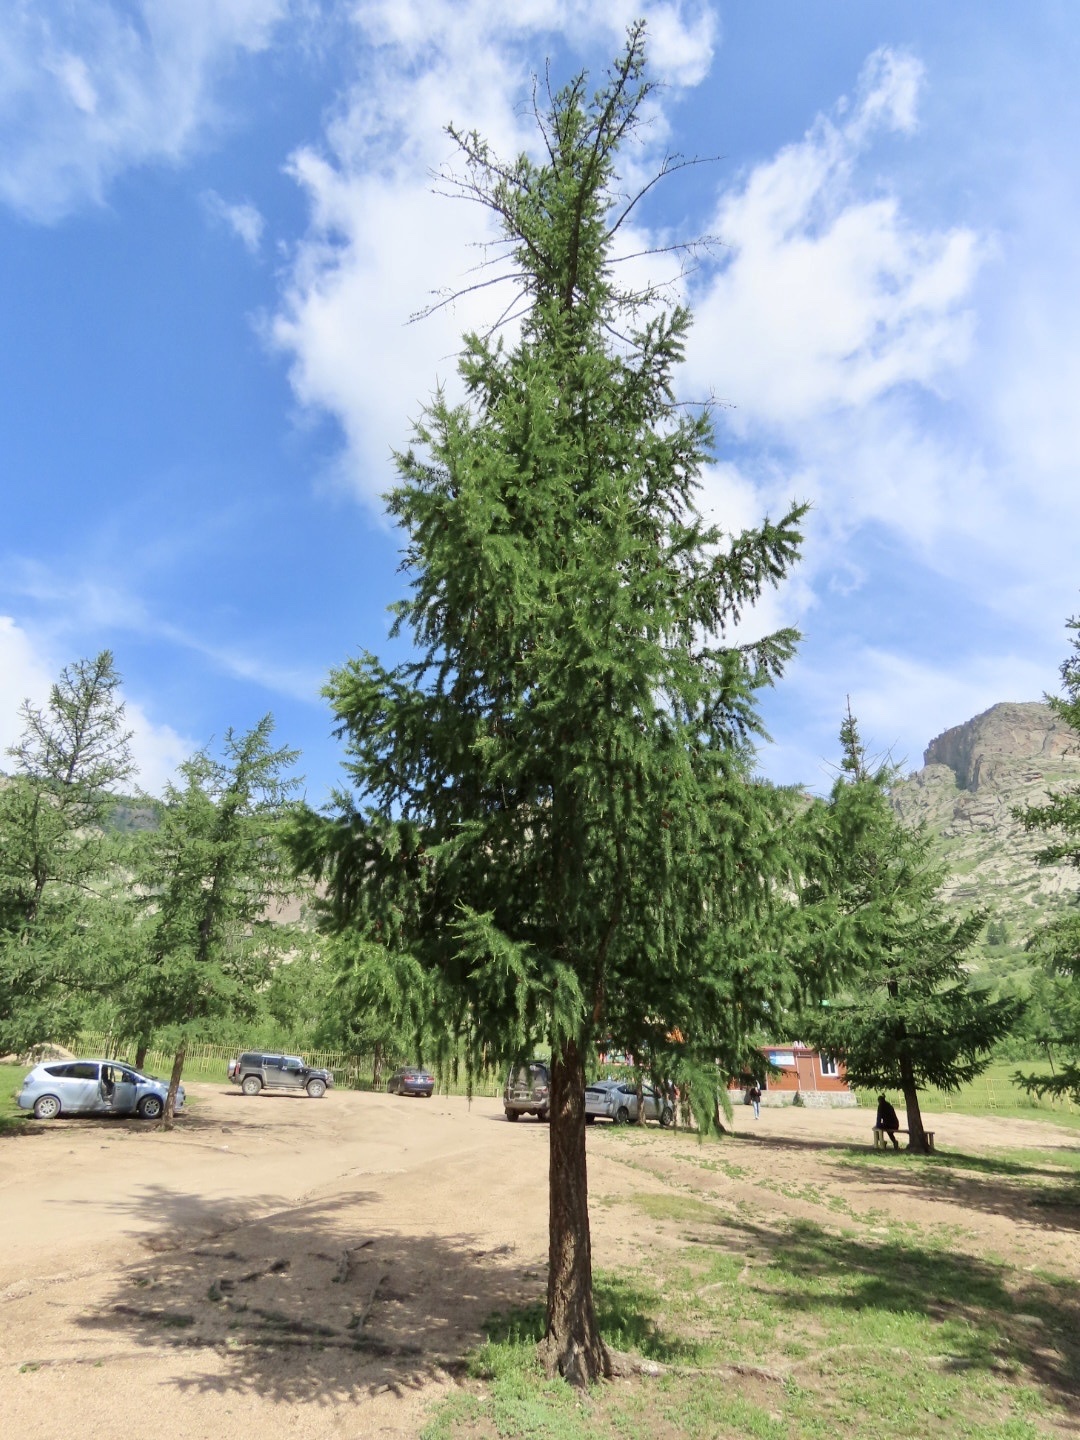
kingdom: Plantae
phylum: Tracheophyta
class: Pinopsida
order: Pinales
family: Pinaceae
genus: Larix
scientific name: Larix sibirica
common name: Siberian larch
